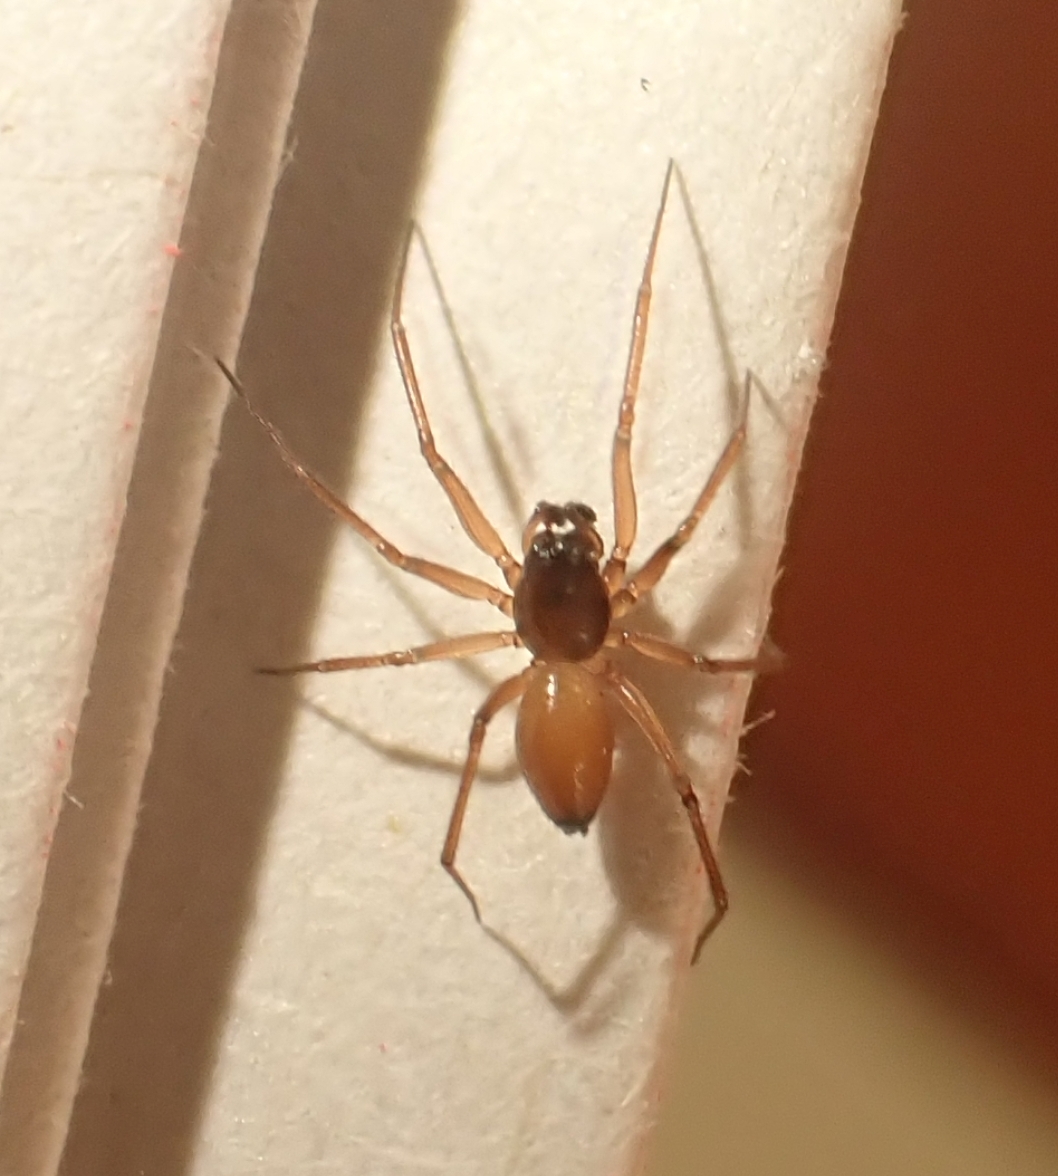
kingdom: Animalia
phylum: Arthropoda
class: Arachnida
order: Araneae
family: Linyphiidae
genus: Ostearius
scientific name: Ostearius melanopygius
